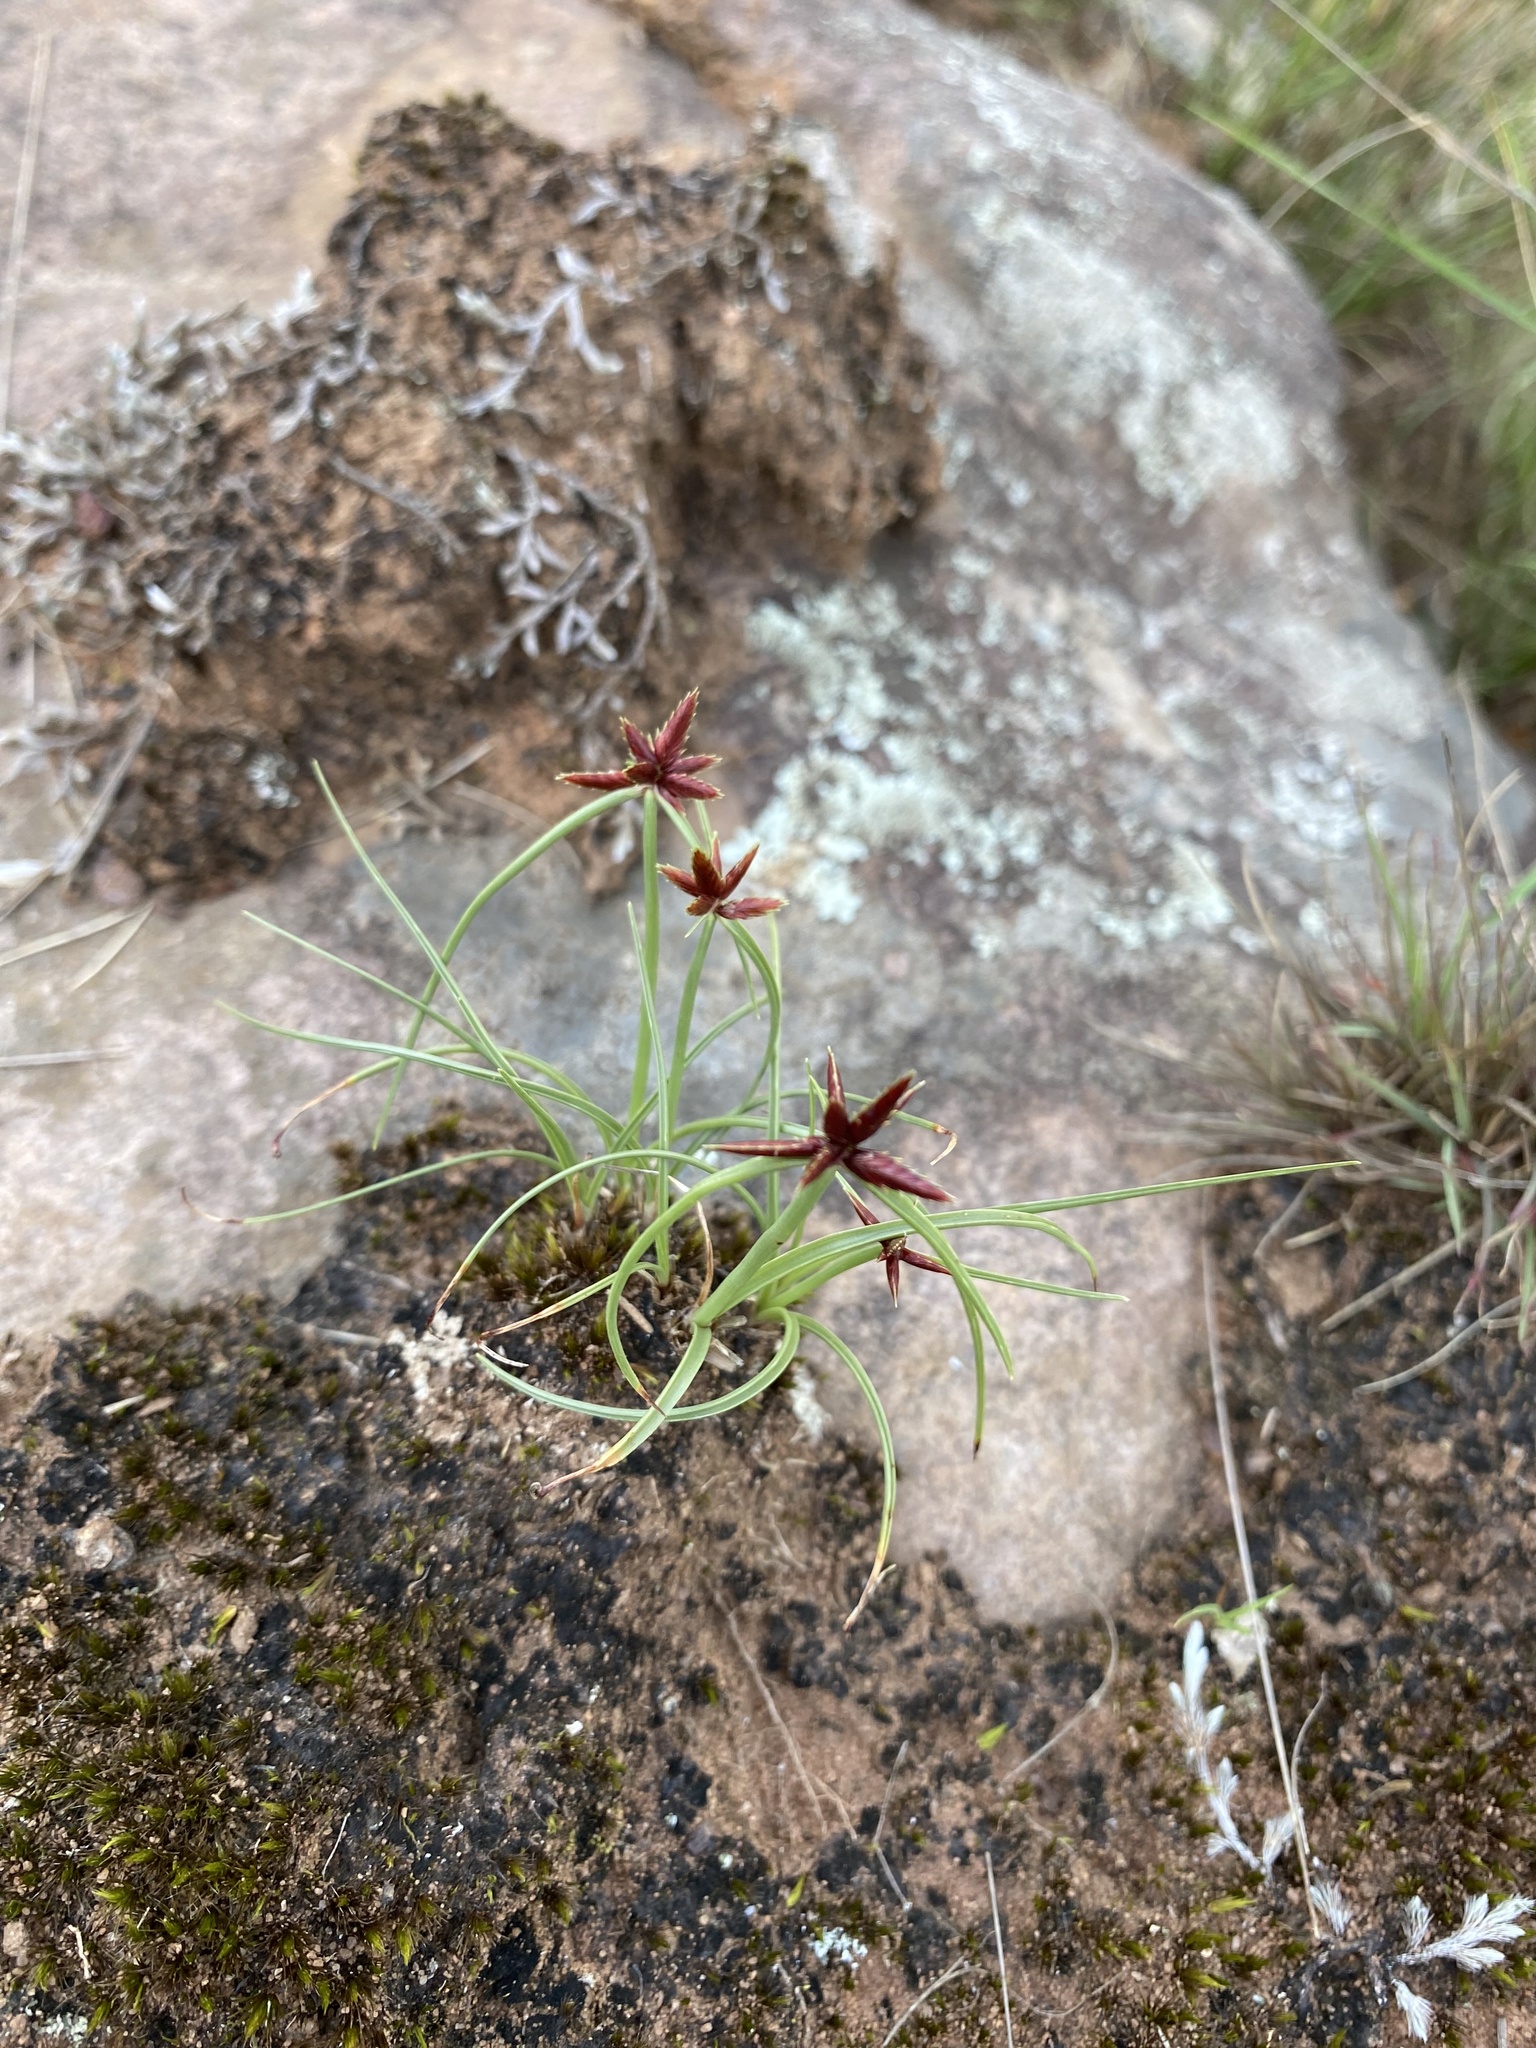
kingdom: Plantae
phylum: Tracheophyta
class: Liliopsida
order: Poales
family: Cyperaceae
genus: Cyperus
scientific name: Cyperus rupestris
